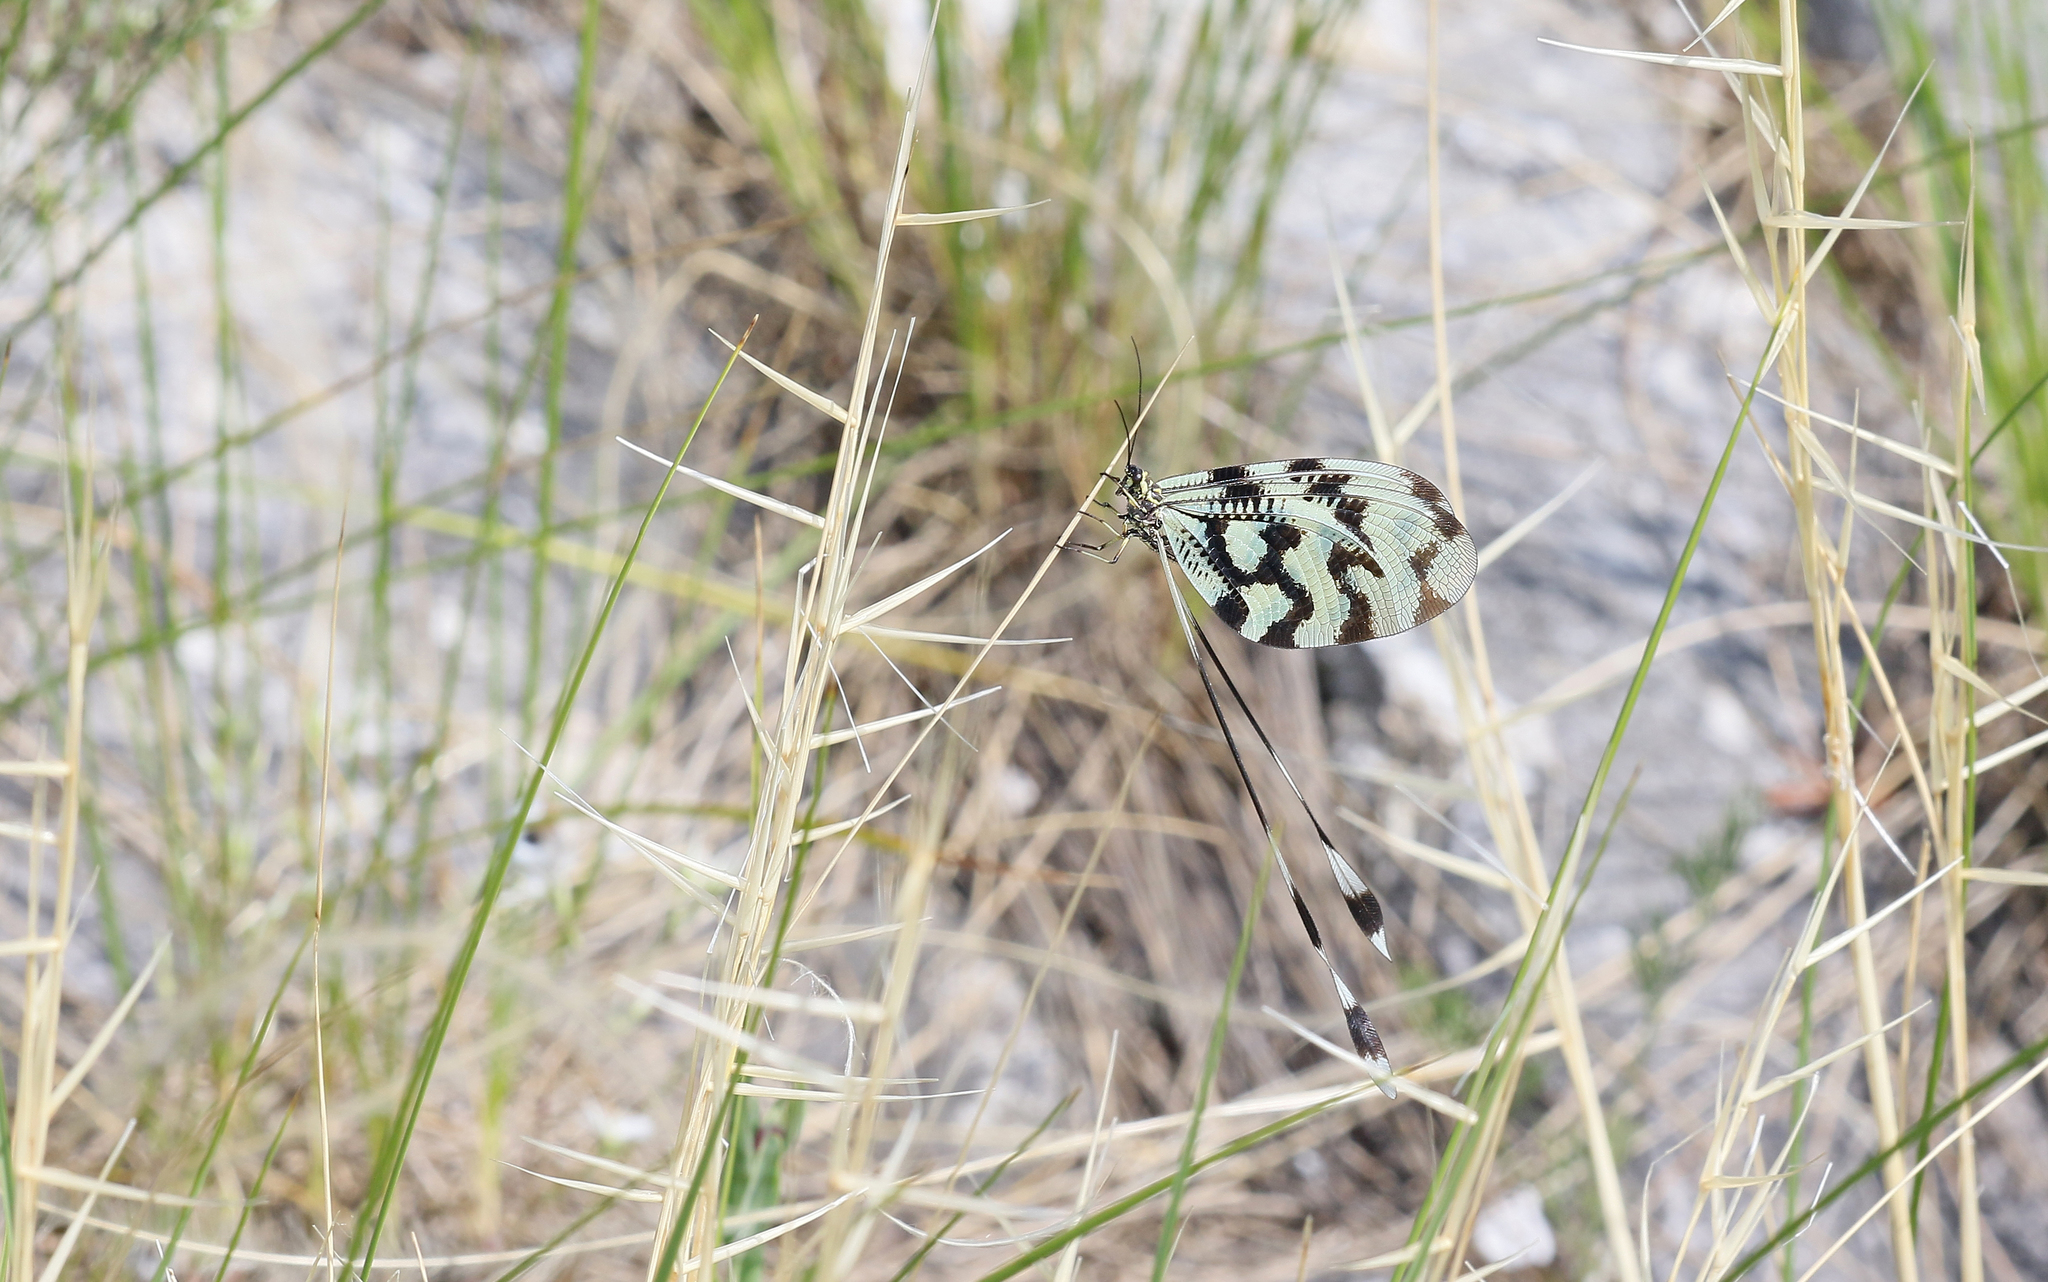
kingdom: Animalia
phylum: Arthropoda
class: Insecta
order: Neuroptera
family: Nemopteridae
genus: Nemoptera
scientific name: Nemoptera sinuata
